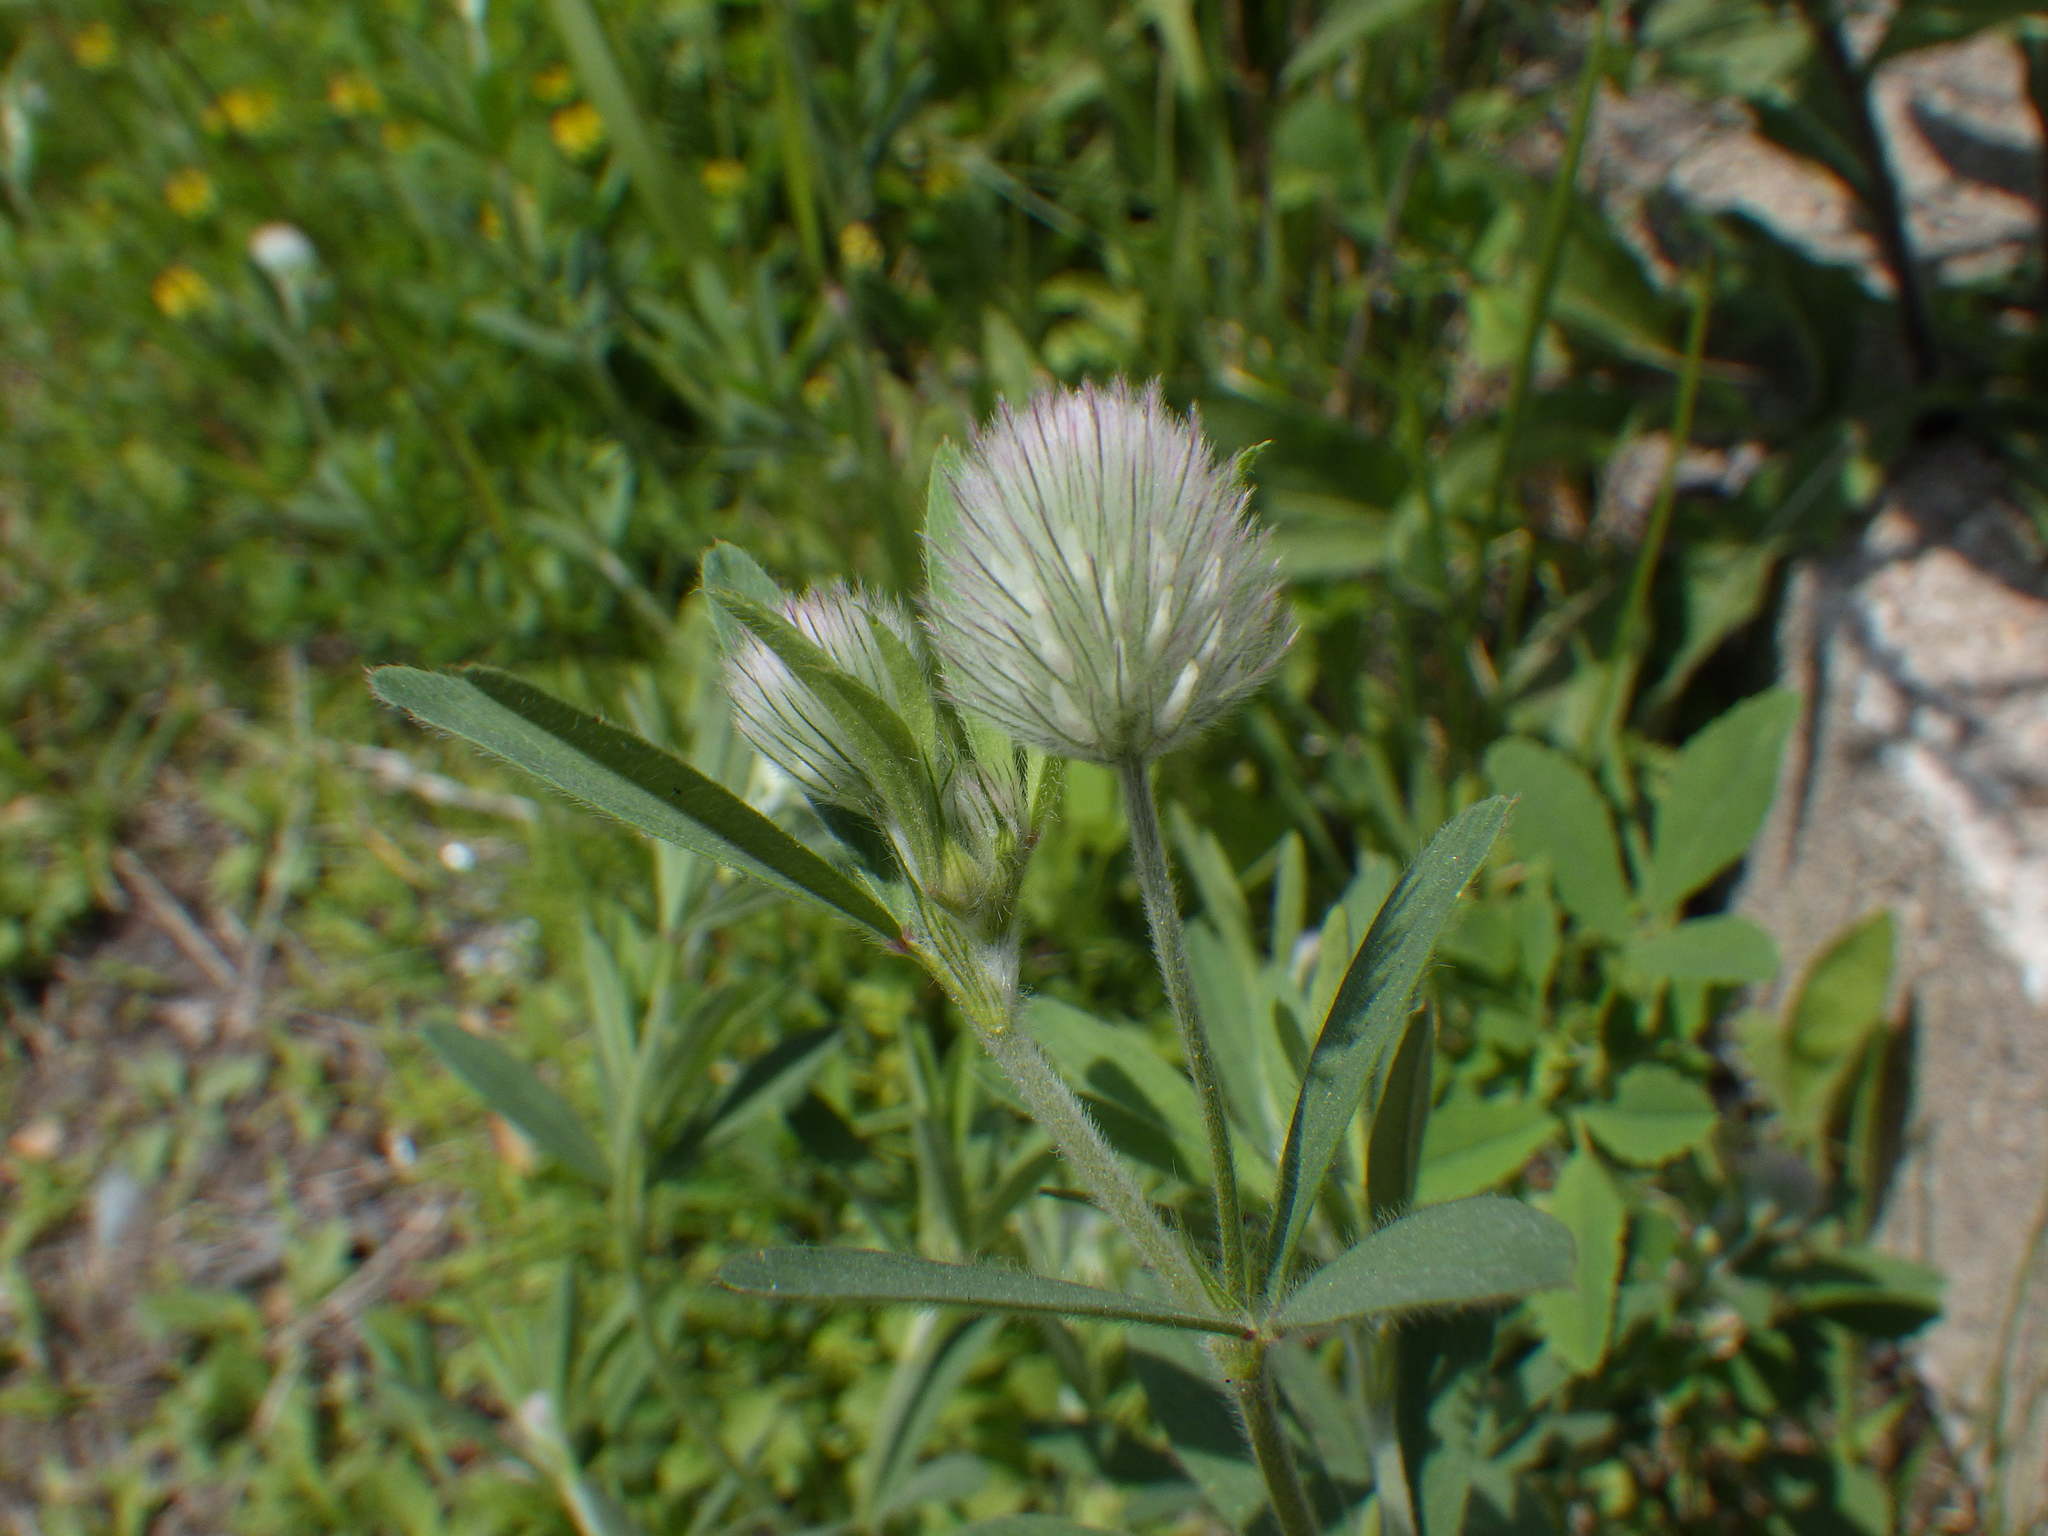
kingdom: Plantae
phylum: Tracheophyta
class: Magnoliopsida
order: Fabales
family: Fabaceae
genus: Trifolium
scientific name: Trifolium arvense
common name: Hare's-foot clover
